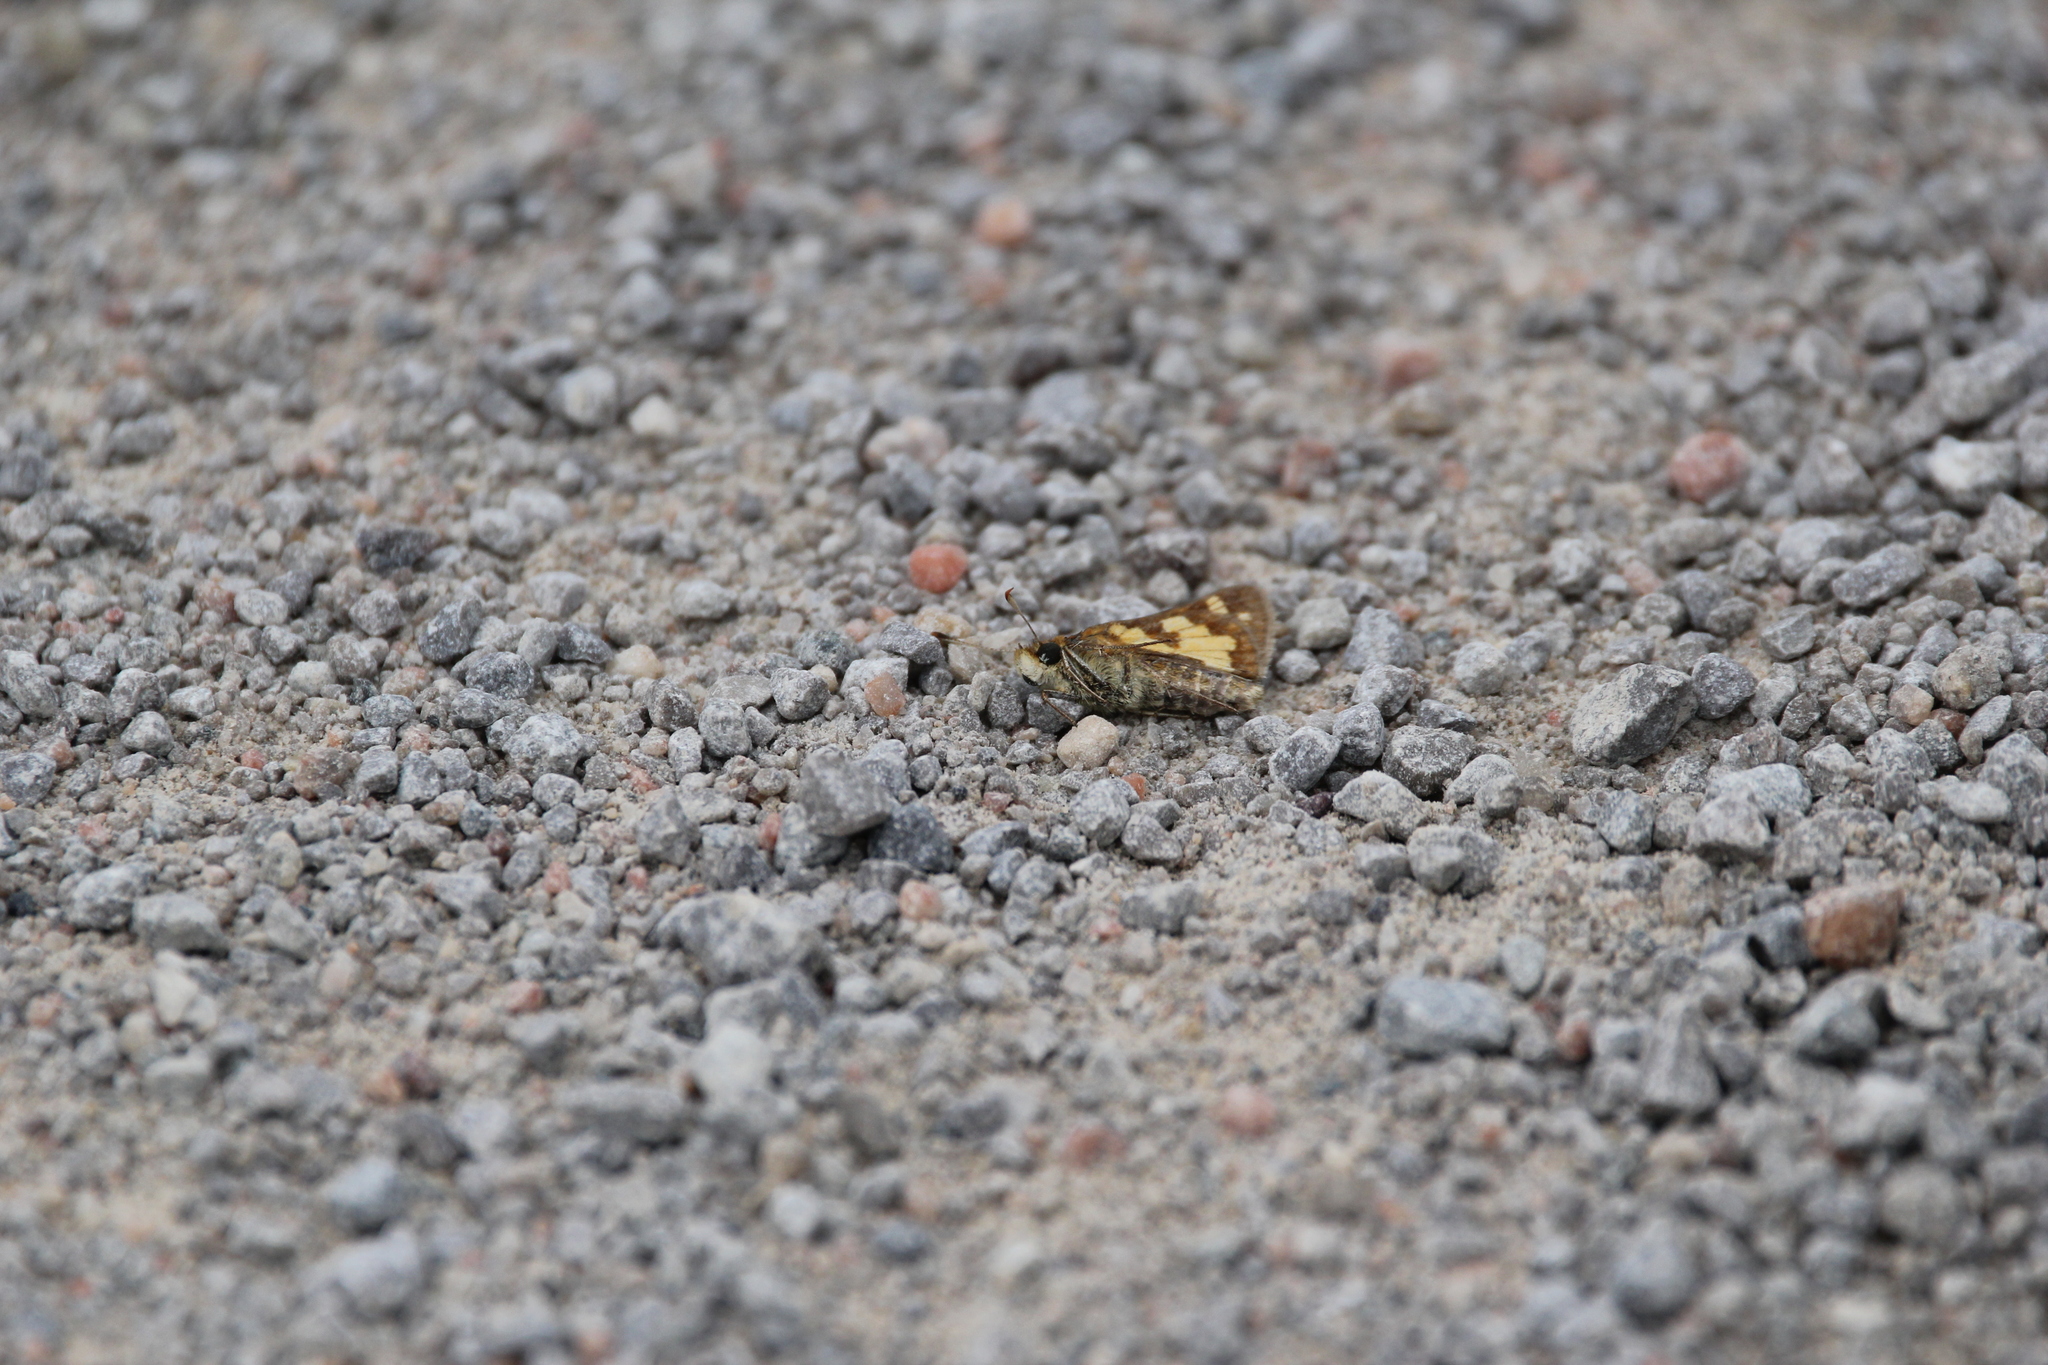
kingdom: Animalia
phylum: Arthropoda
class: Insecta
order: Lepidoptera
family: Hesperiidae
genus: Polites
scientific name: Polites coras
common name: Peck's skipper
